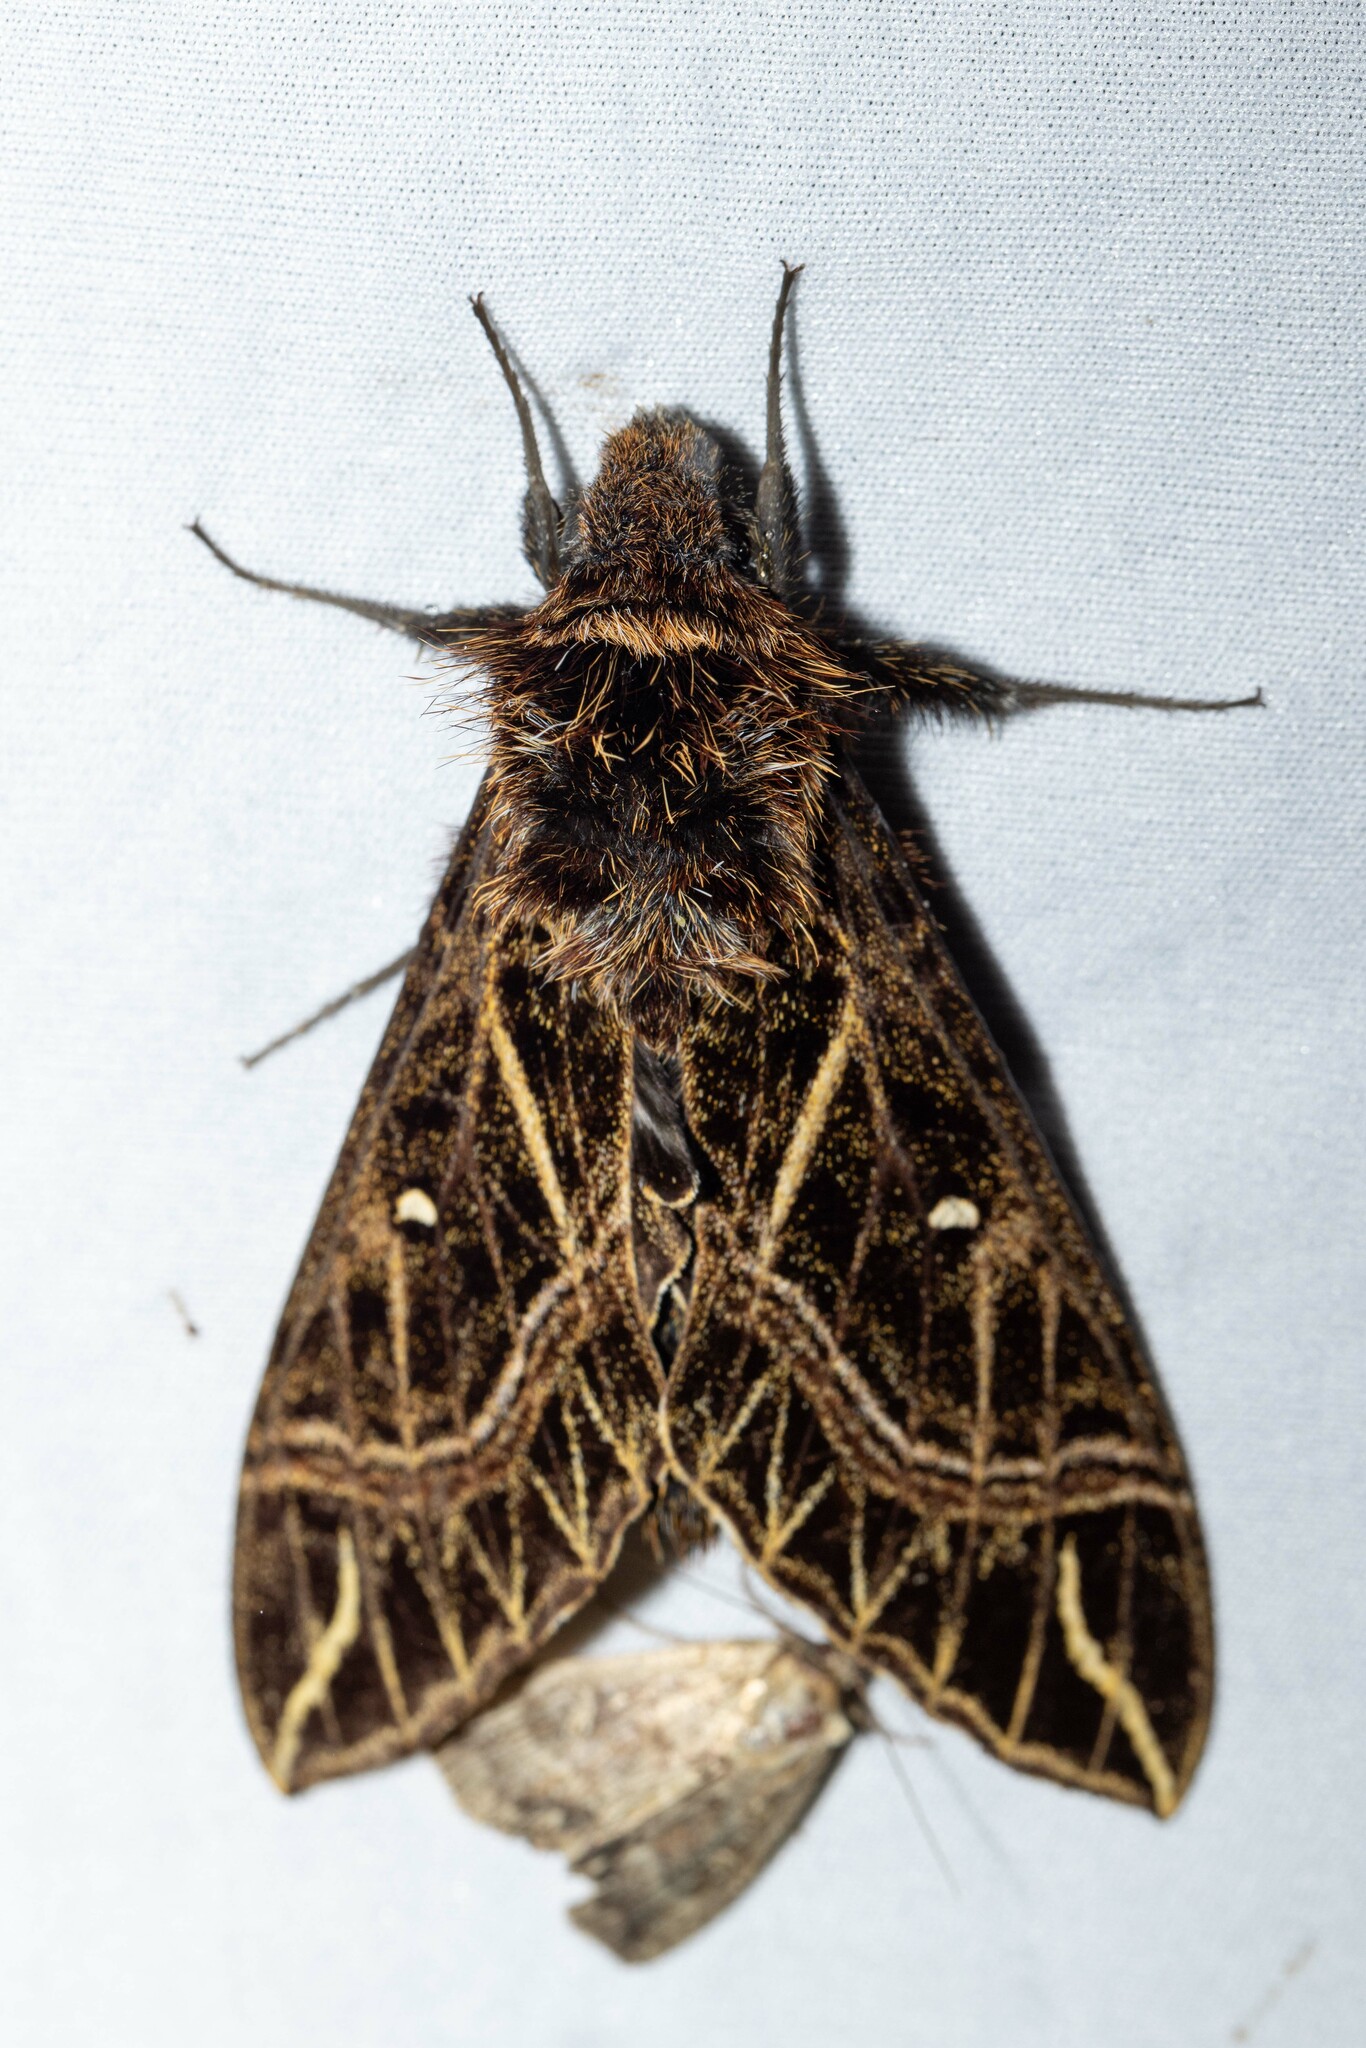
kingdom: Animalia
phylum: Arthropoda
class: Insecta
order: Lepidoptera
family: Sphingidae
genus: Euryglottis
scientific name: Euryglottis aper
